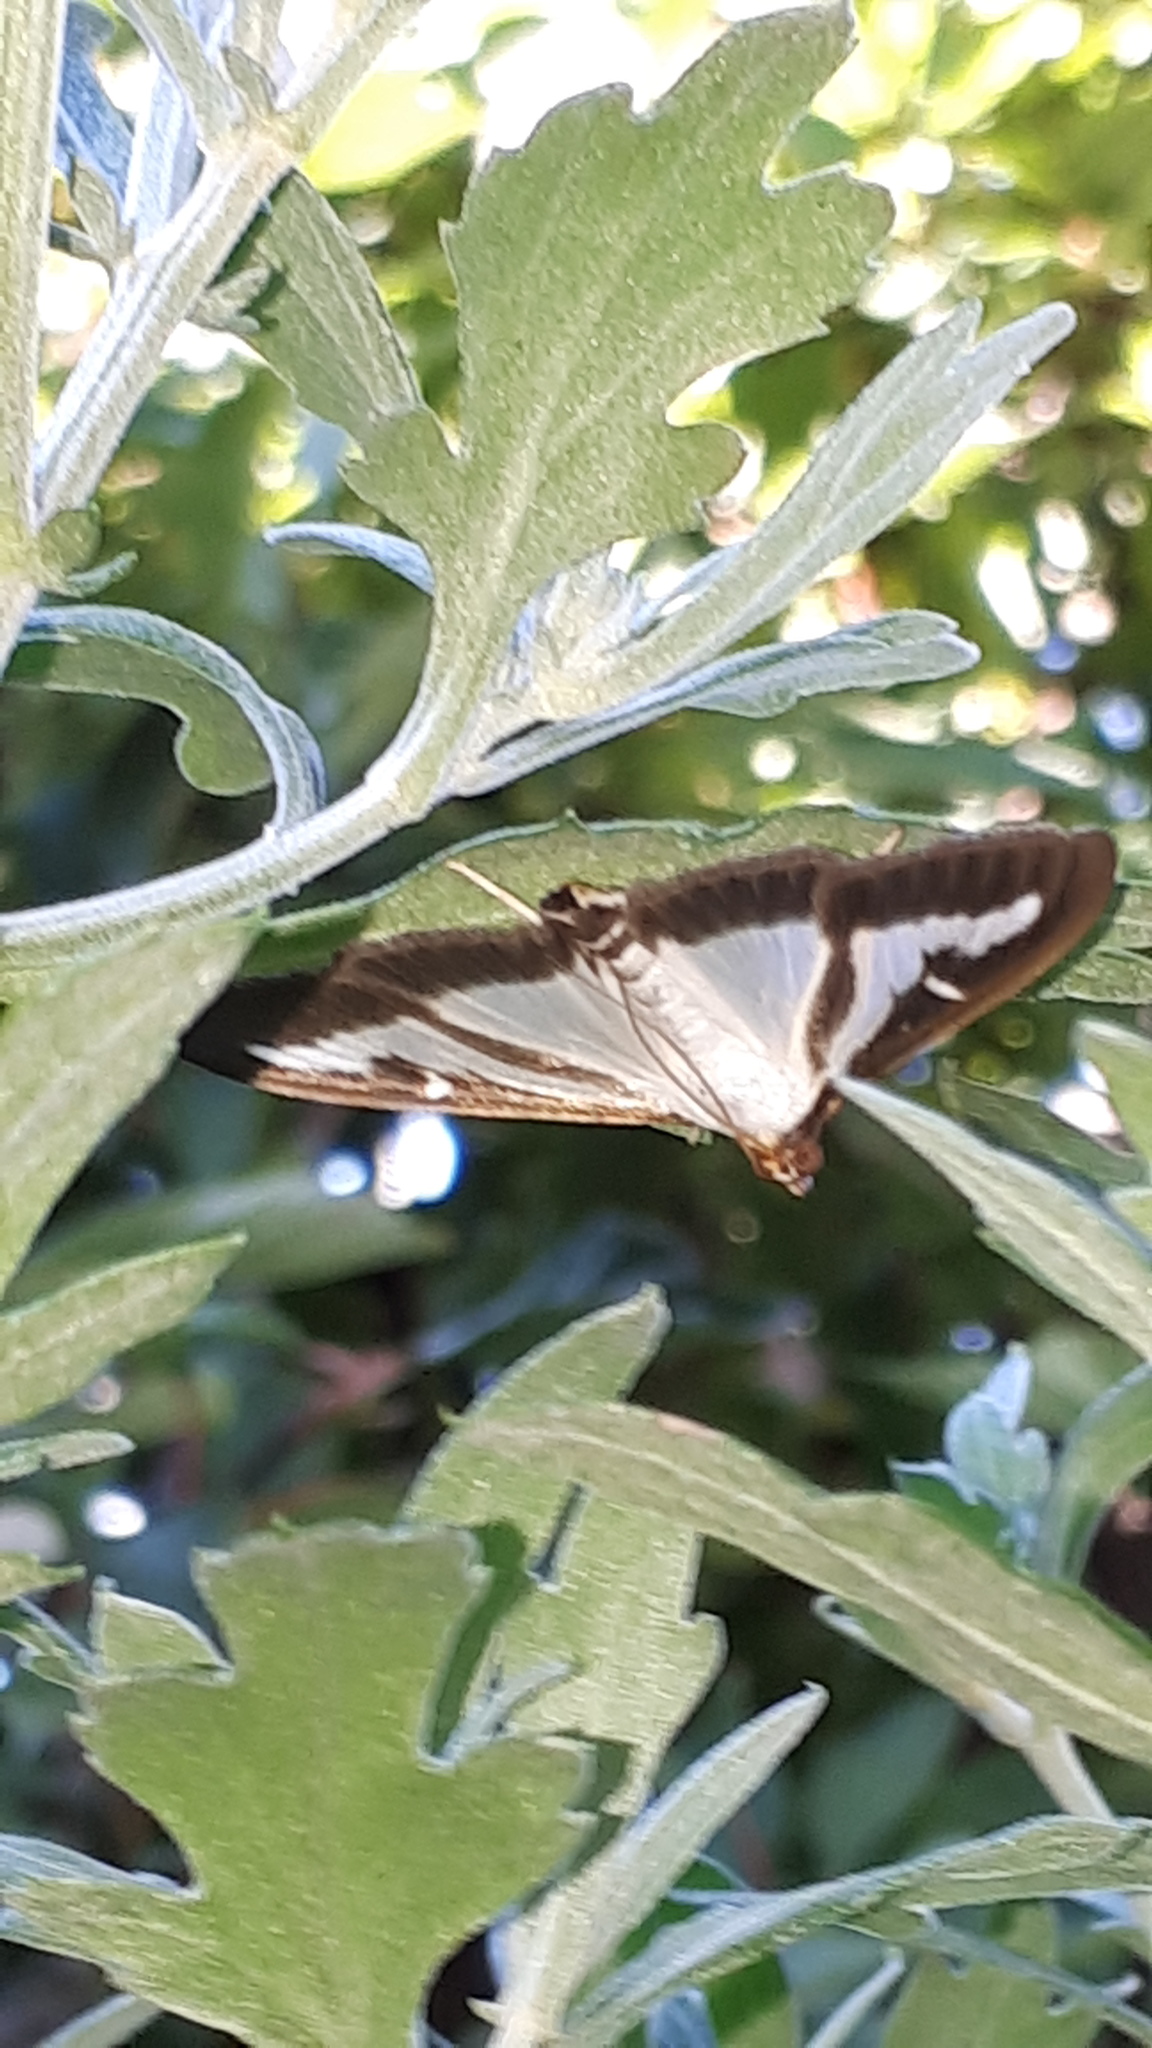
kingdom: Animalia
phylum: Arthropoda
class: Insecta
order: Lepidoptera
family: Crambidae
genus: Cydalima
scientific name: Cydalima perspectalis
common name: Box tree moth
